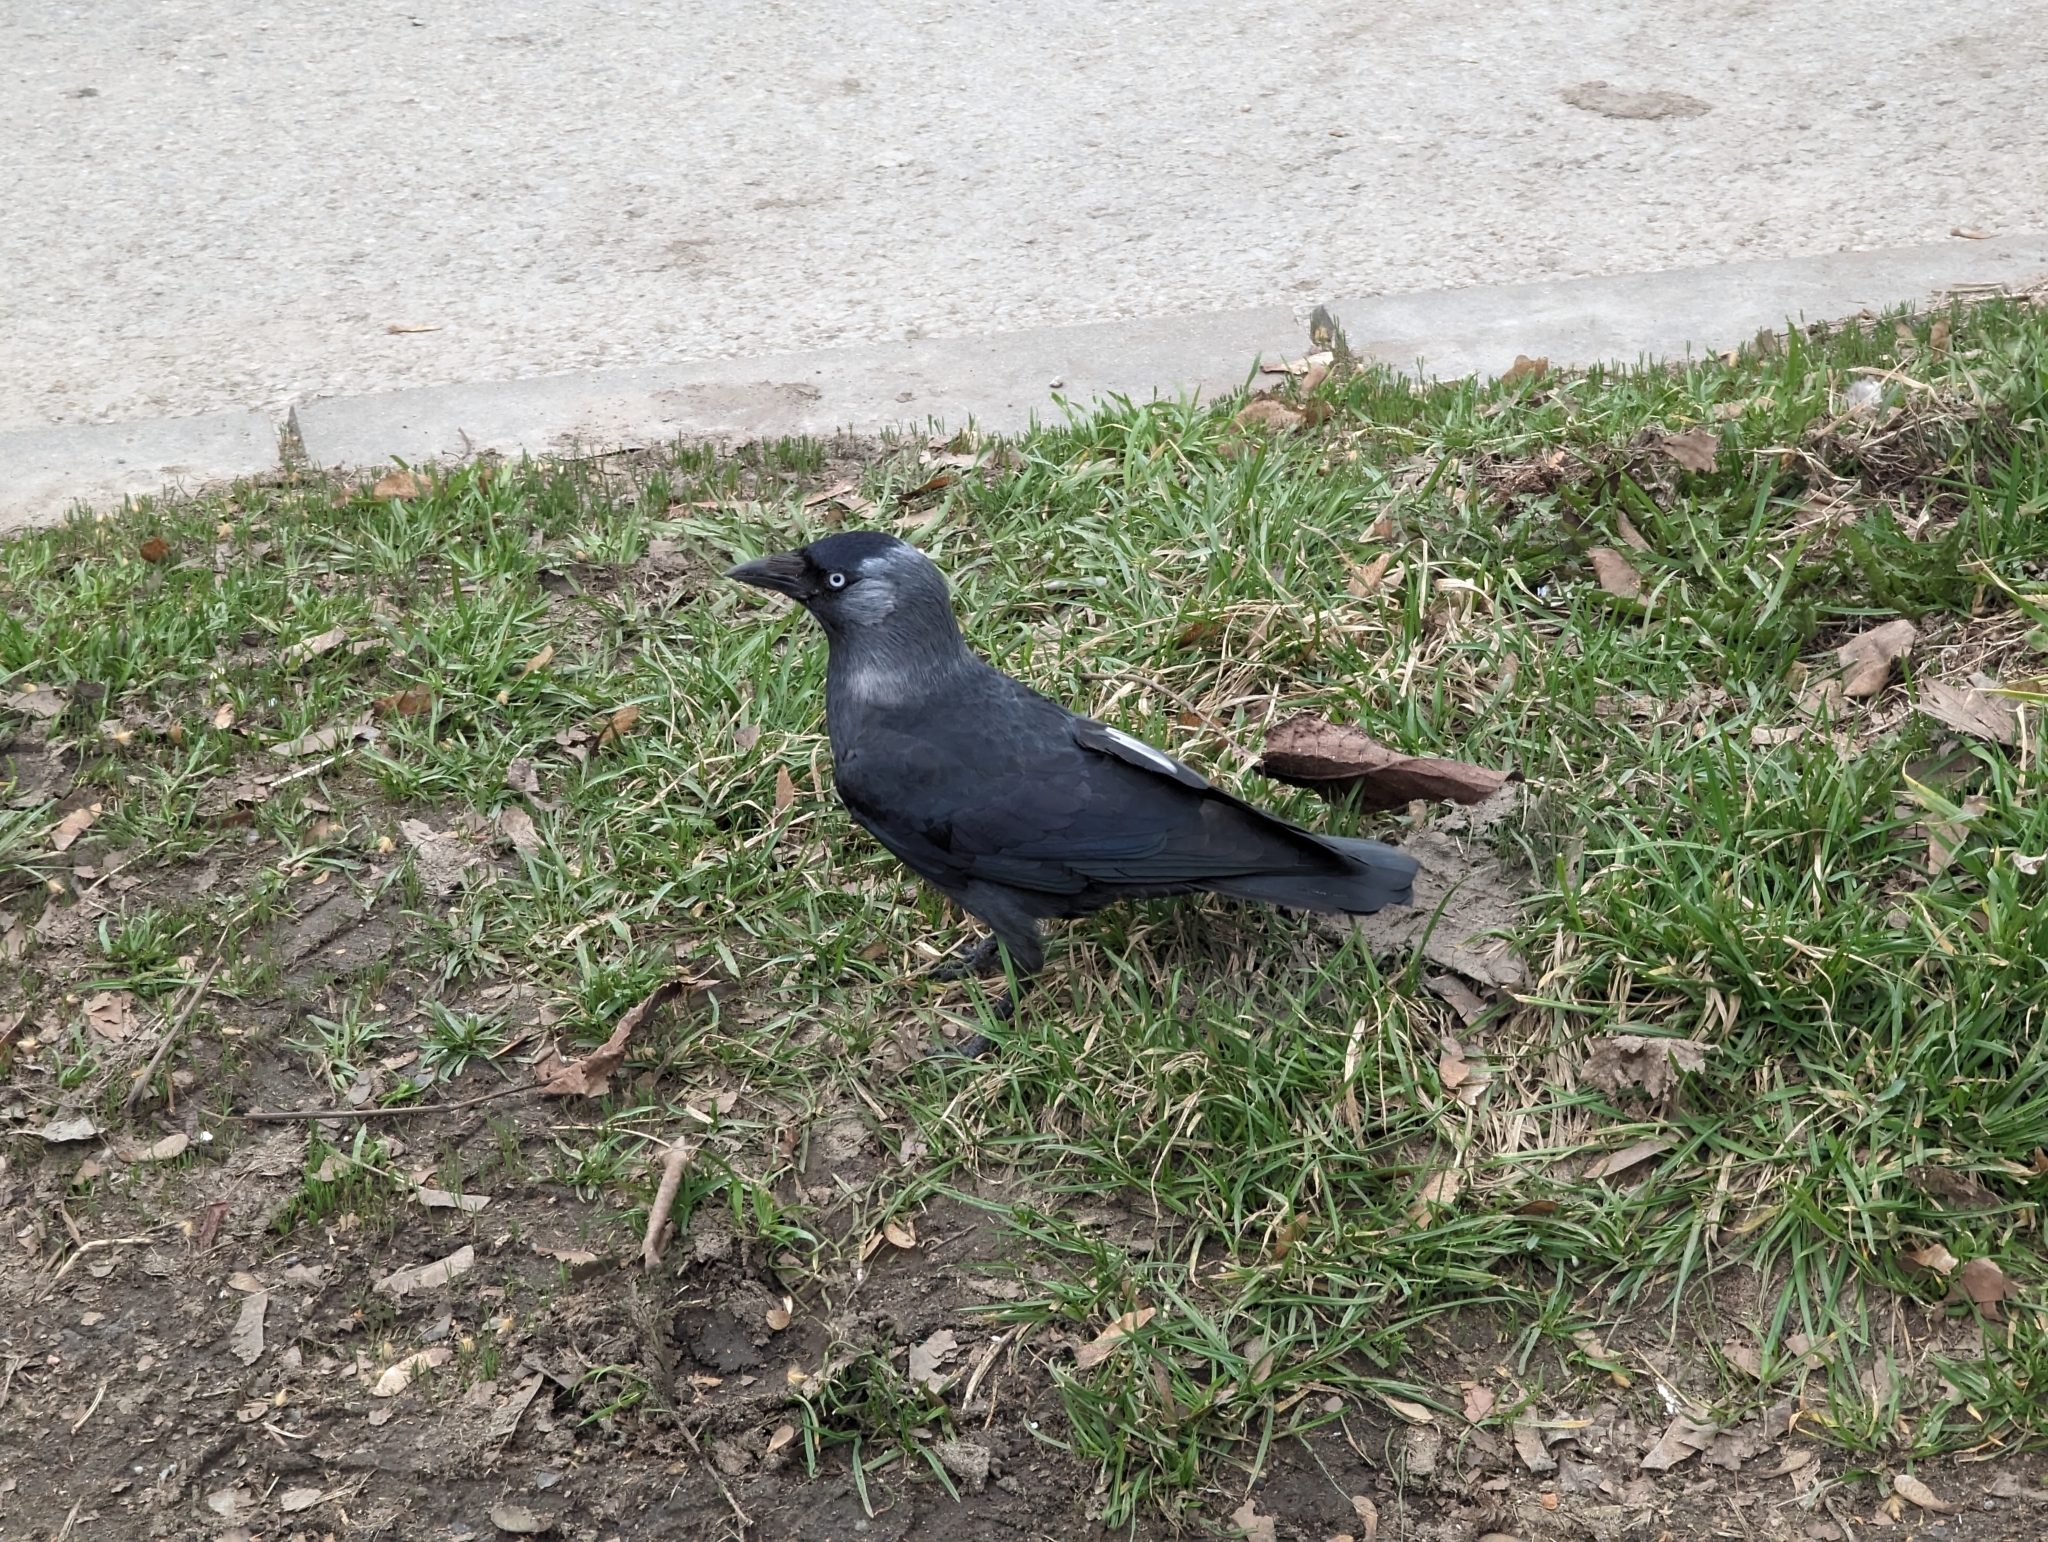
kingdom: Animalia
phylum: Chordata
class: Aves
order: Passeriformes
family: Corvidae
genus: Coloeus
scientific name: Coloeus monedula
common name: Western jackdaw
